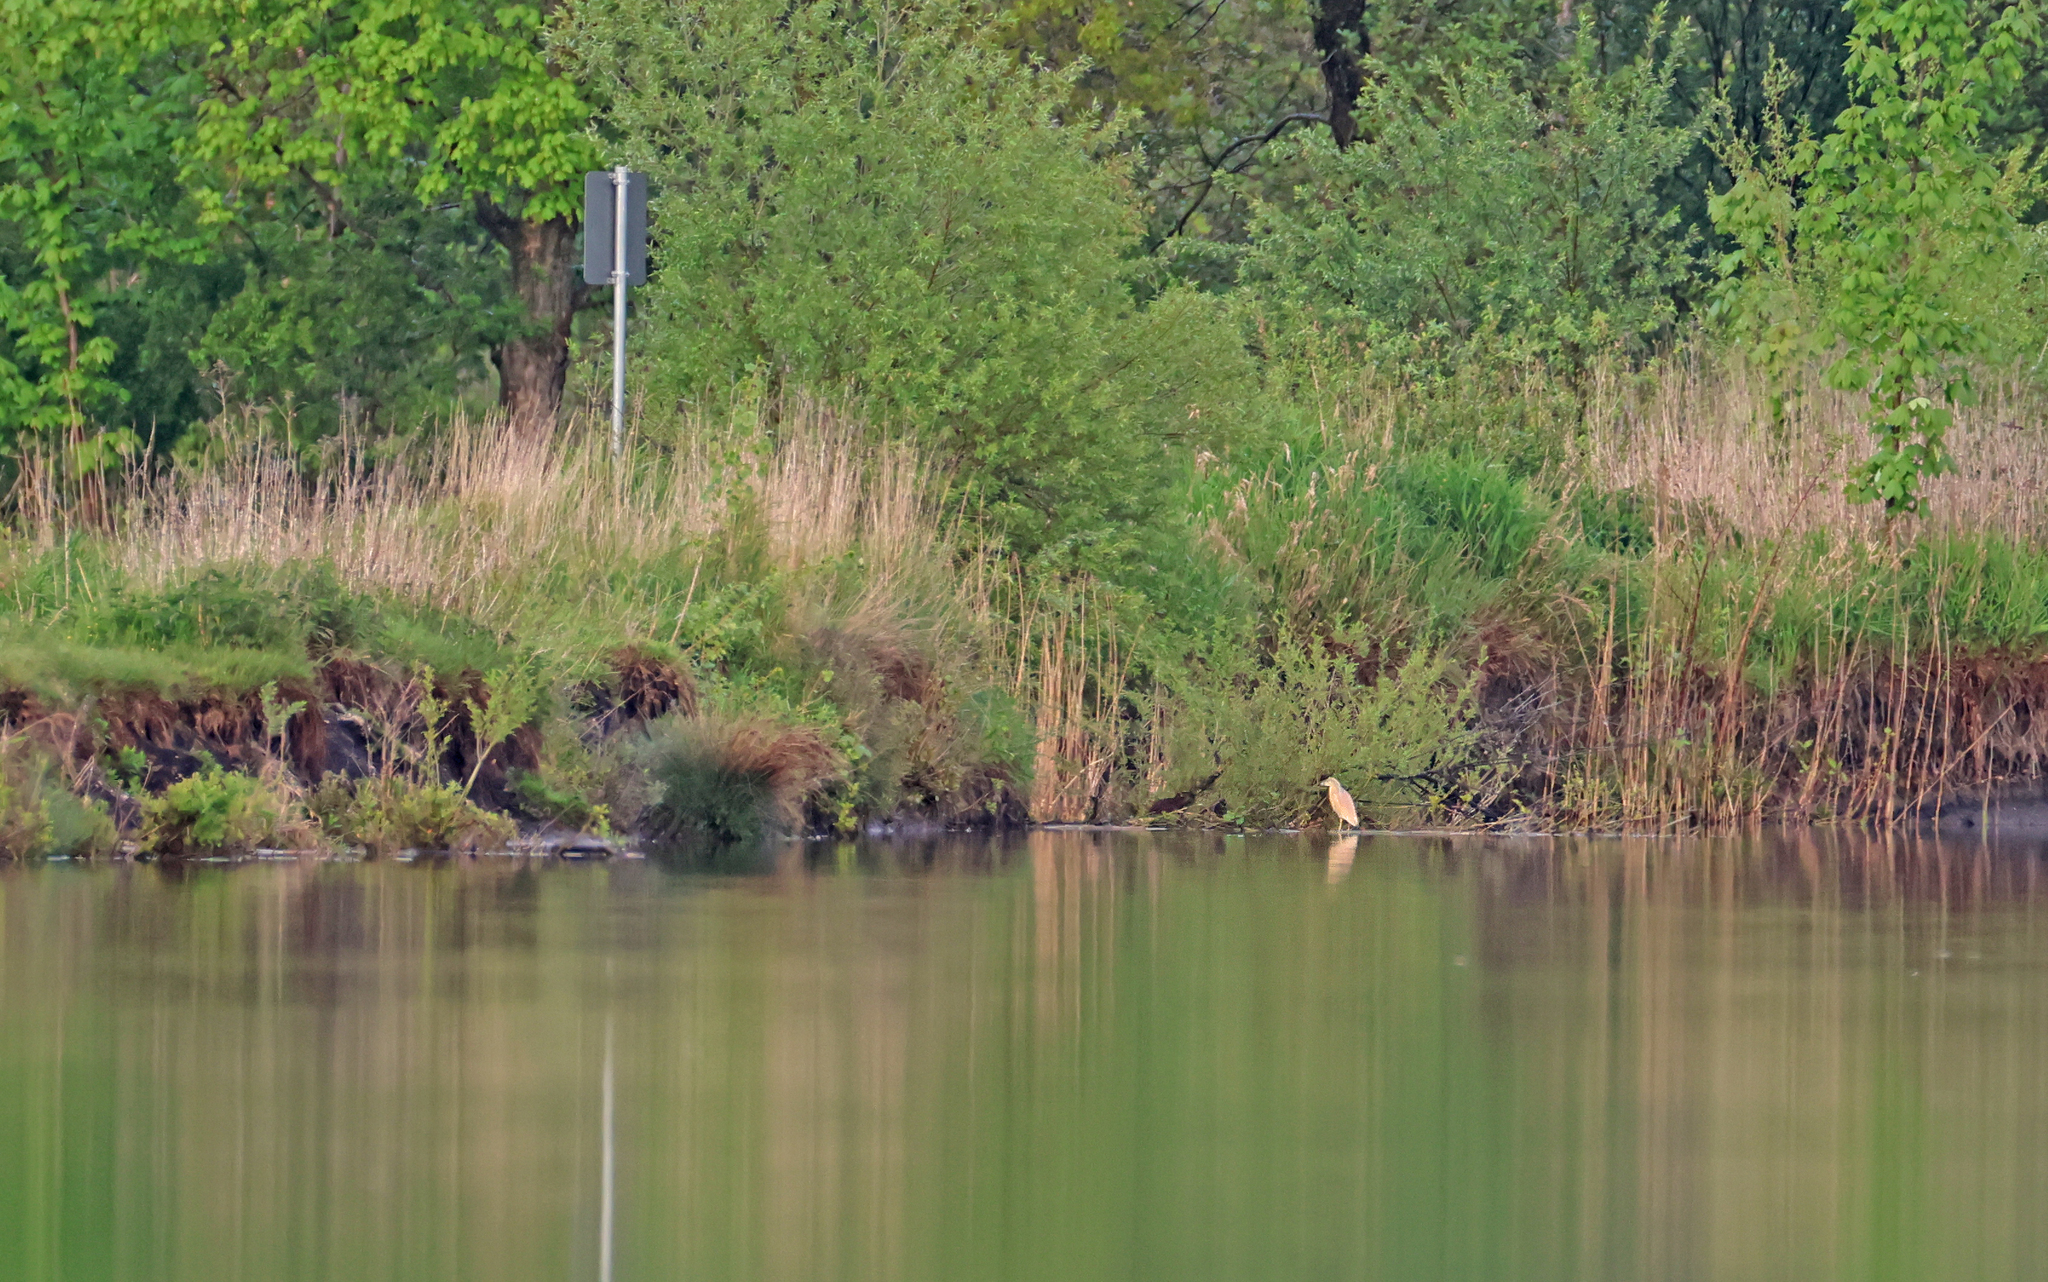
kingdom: Animalia
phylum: Chordata
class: Aves
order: Pelecaniformes
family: Ardeidae
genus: Ardeola
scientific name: Ardeola ralloides
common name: Squacco heron
